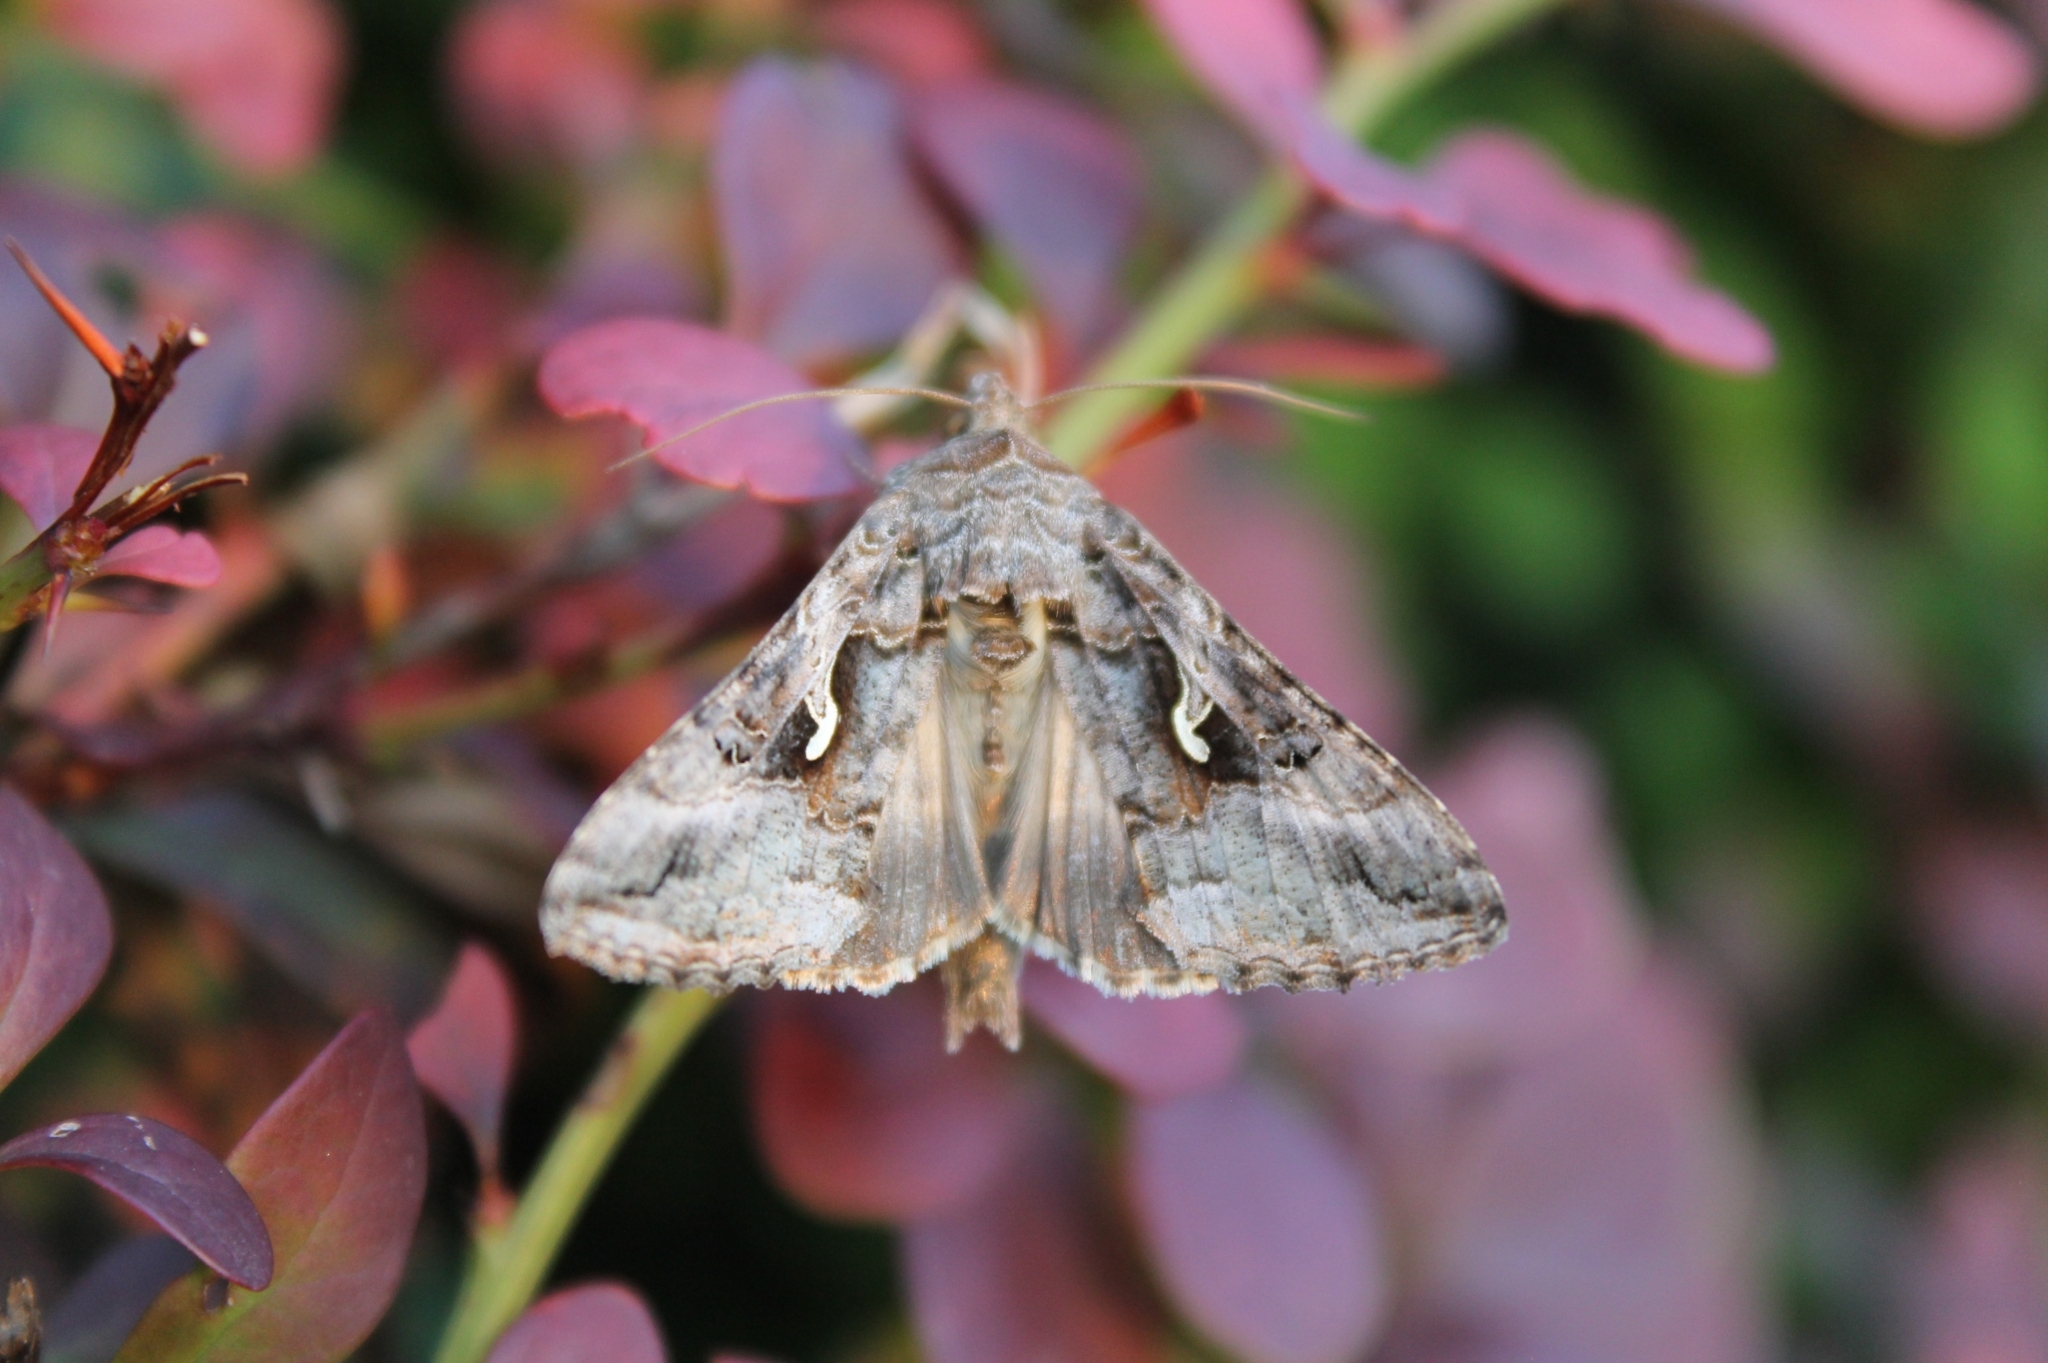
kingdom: Animalia
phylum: Arthropoda
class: Insecta
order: Lepidoptera
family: Noctuidae
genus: Autographa
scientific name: Autographa gamma
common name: Silver y
